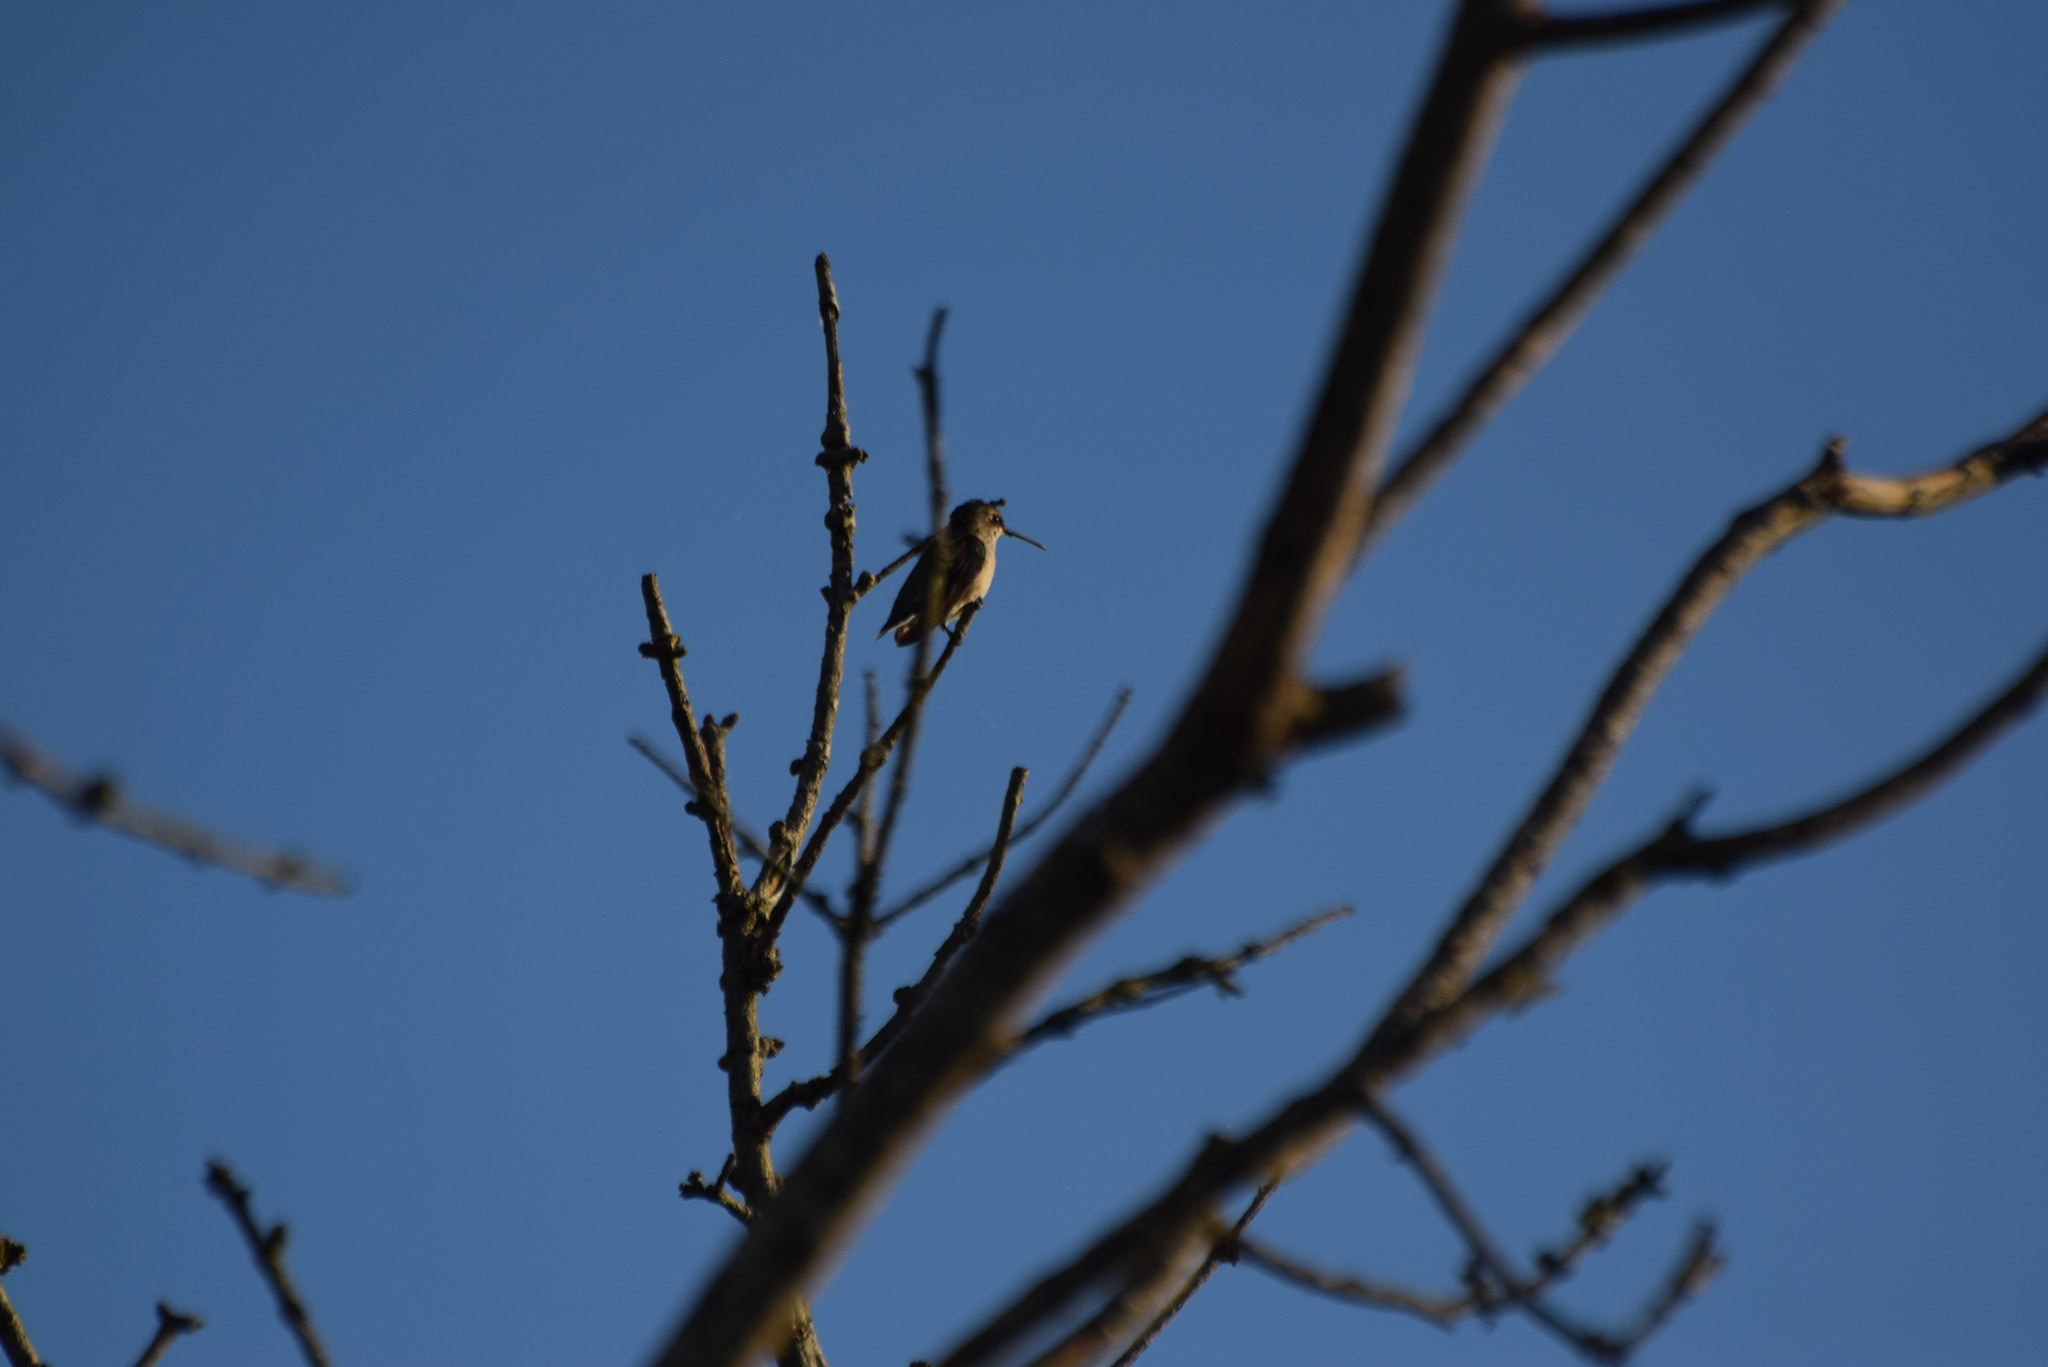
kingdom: Animalia
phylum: Chordata
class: Aves
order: Apodiformes
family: Trochilidae
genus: Archilochus
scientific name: Archilochus colubris
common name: Ruby-throated hummingbird
